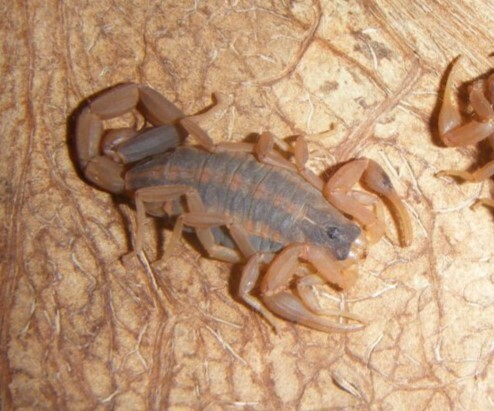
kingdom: Animalia
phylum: Arthropoda
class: Arachnida
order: Scorpiones
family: Buthidae
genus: Centruroides
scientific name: Centruroides vittatus
